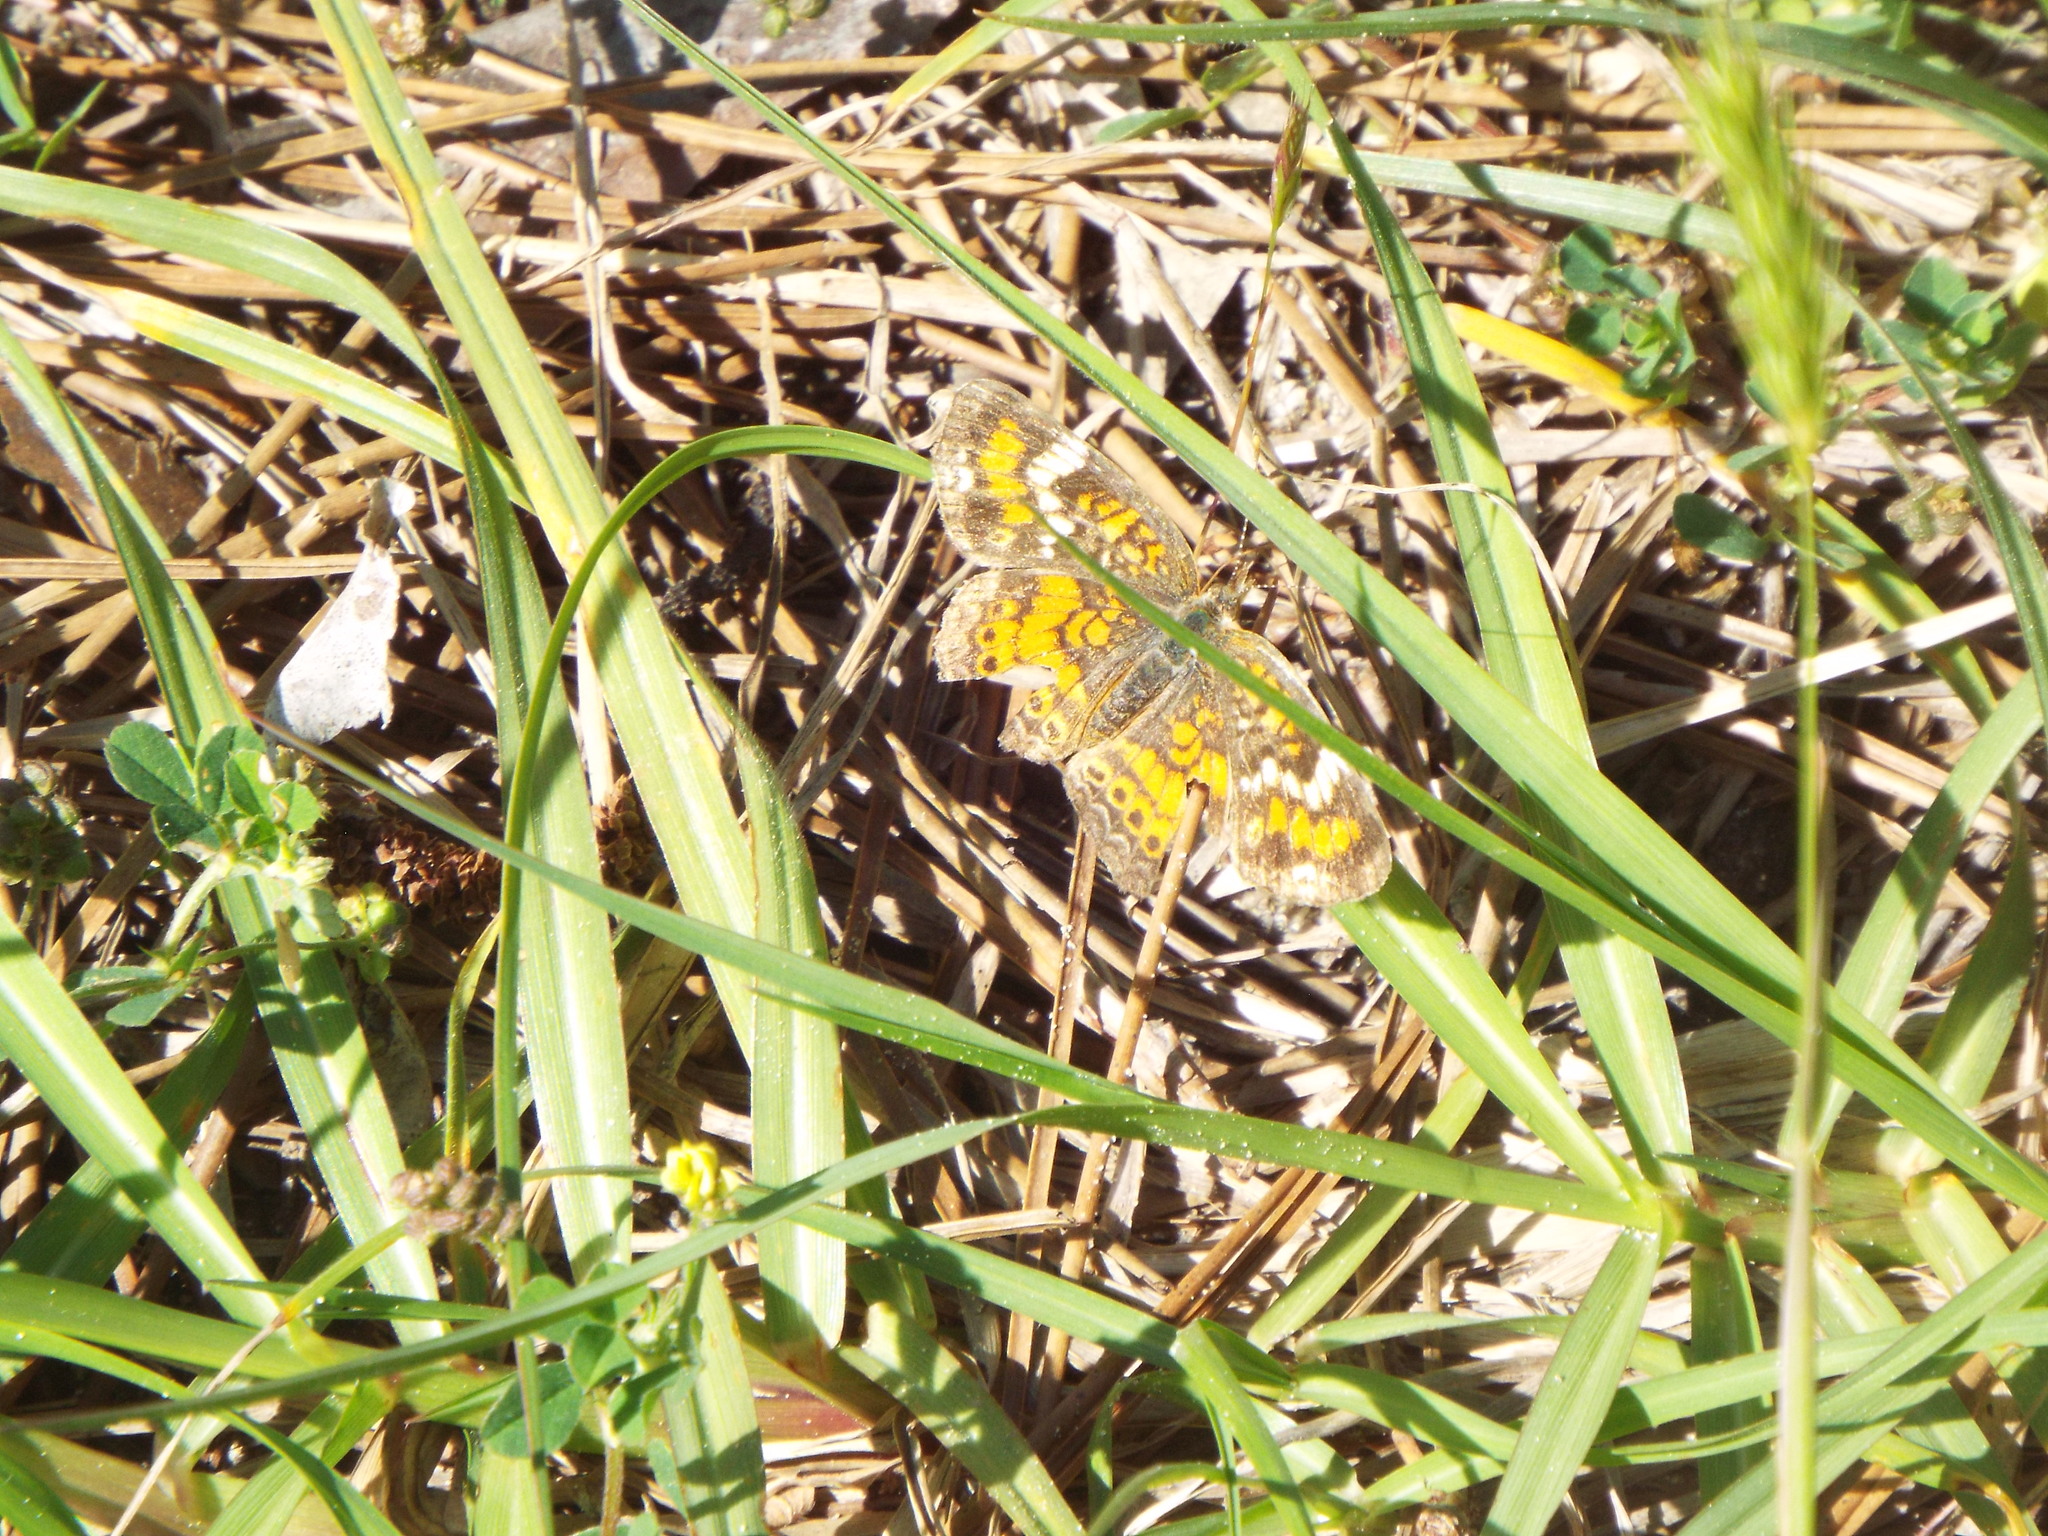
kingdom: Animalia
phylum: Arthropoda
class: Insecta
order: Lepidoptera
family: Nymphalidae
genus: Phyciodes
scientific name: Phyciodes phaon
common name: Phaon crescent
